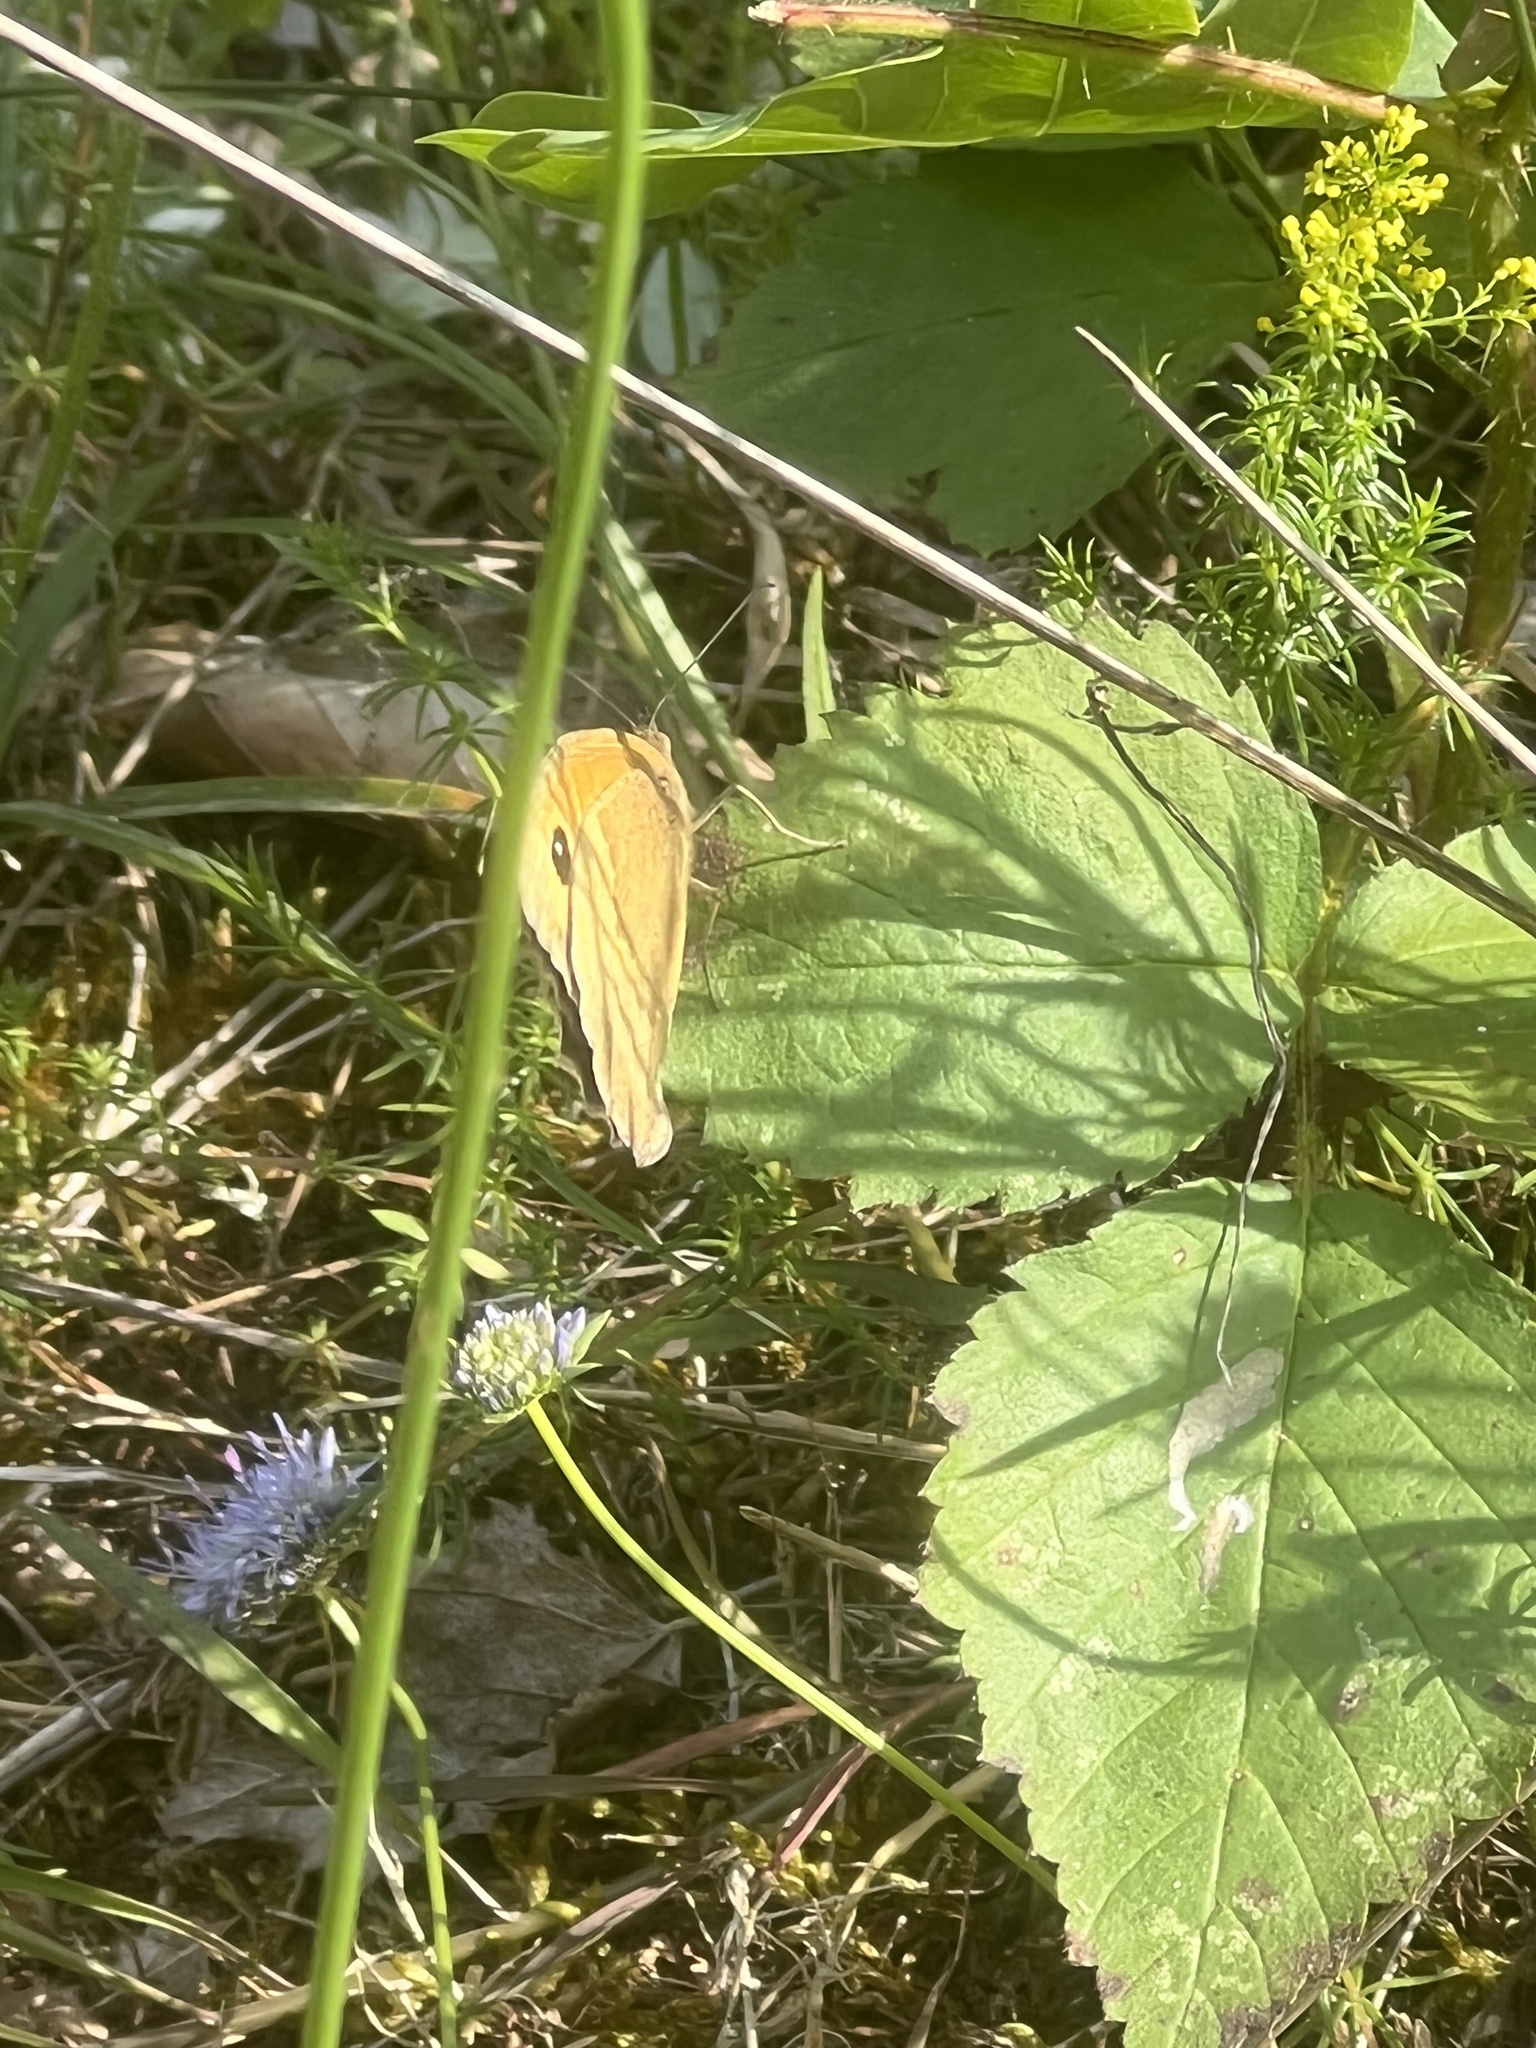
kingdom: Animalia
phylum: Arthropoda
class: Insecta
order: Lepidoptera
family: Nymphalidae
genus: Maniola
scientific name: Maniola jurtina
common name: Meadow brown
